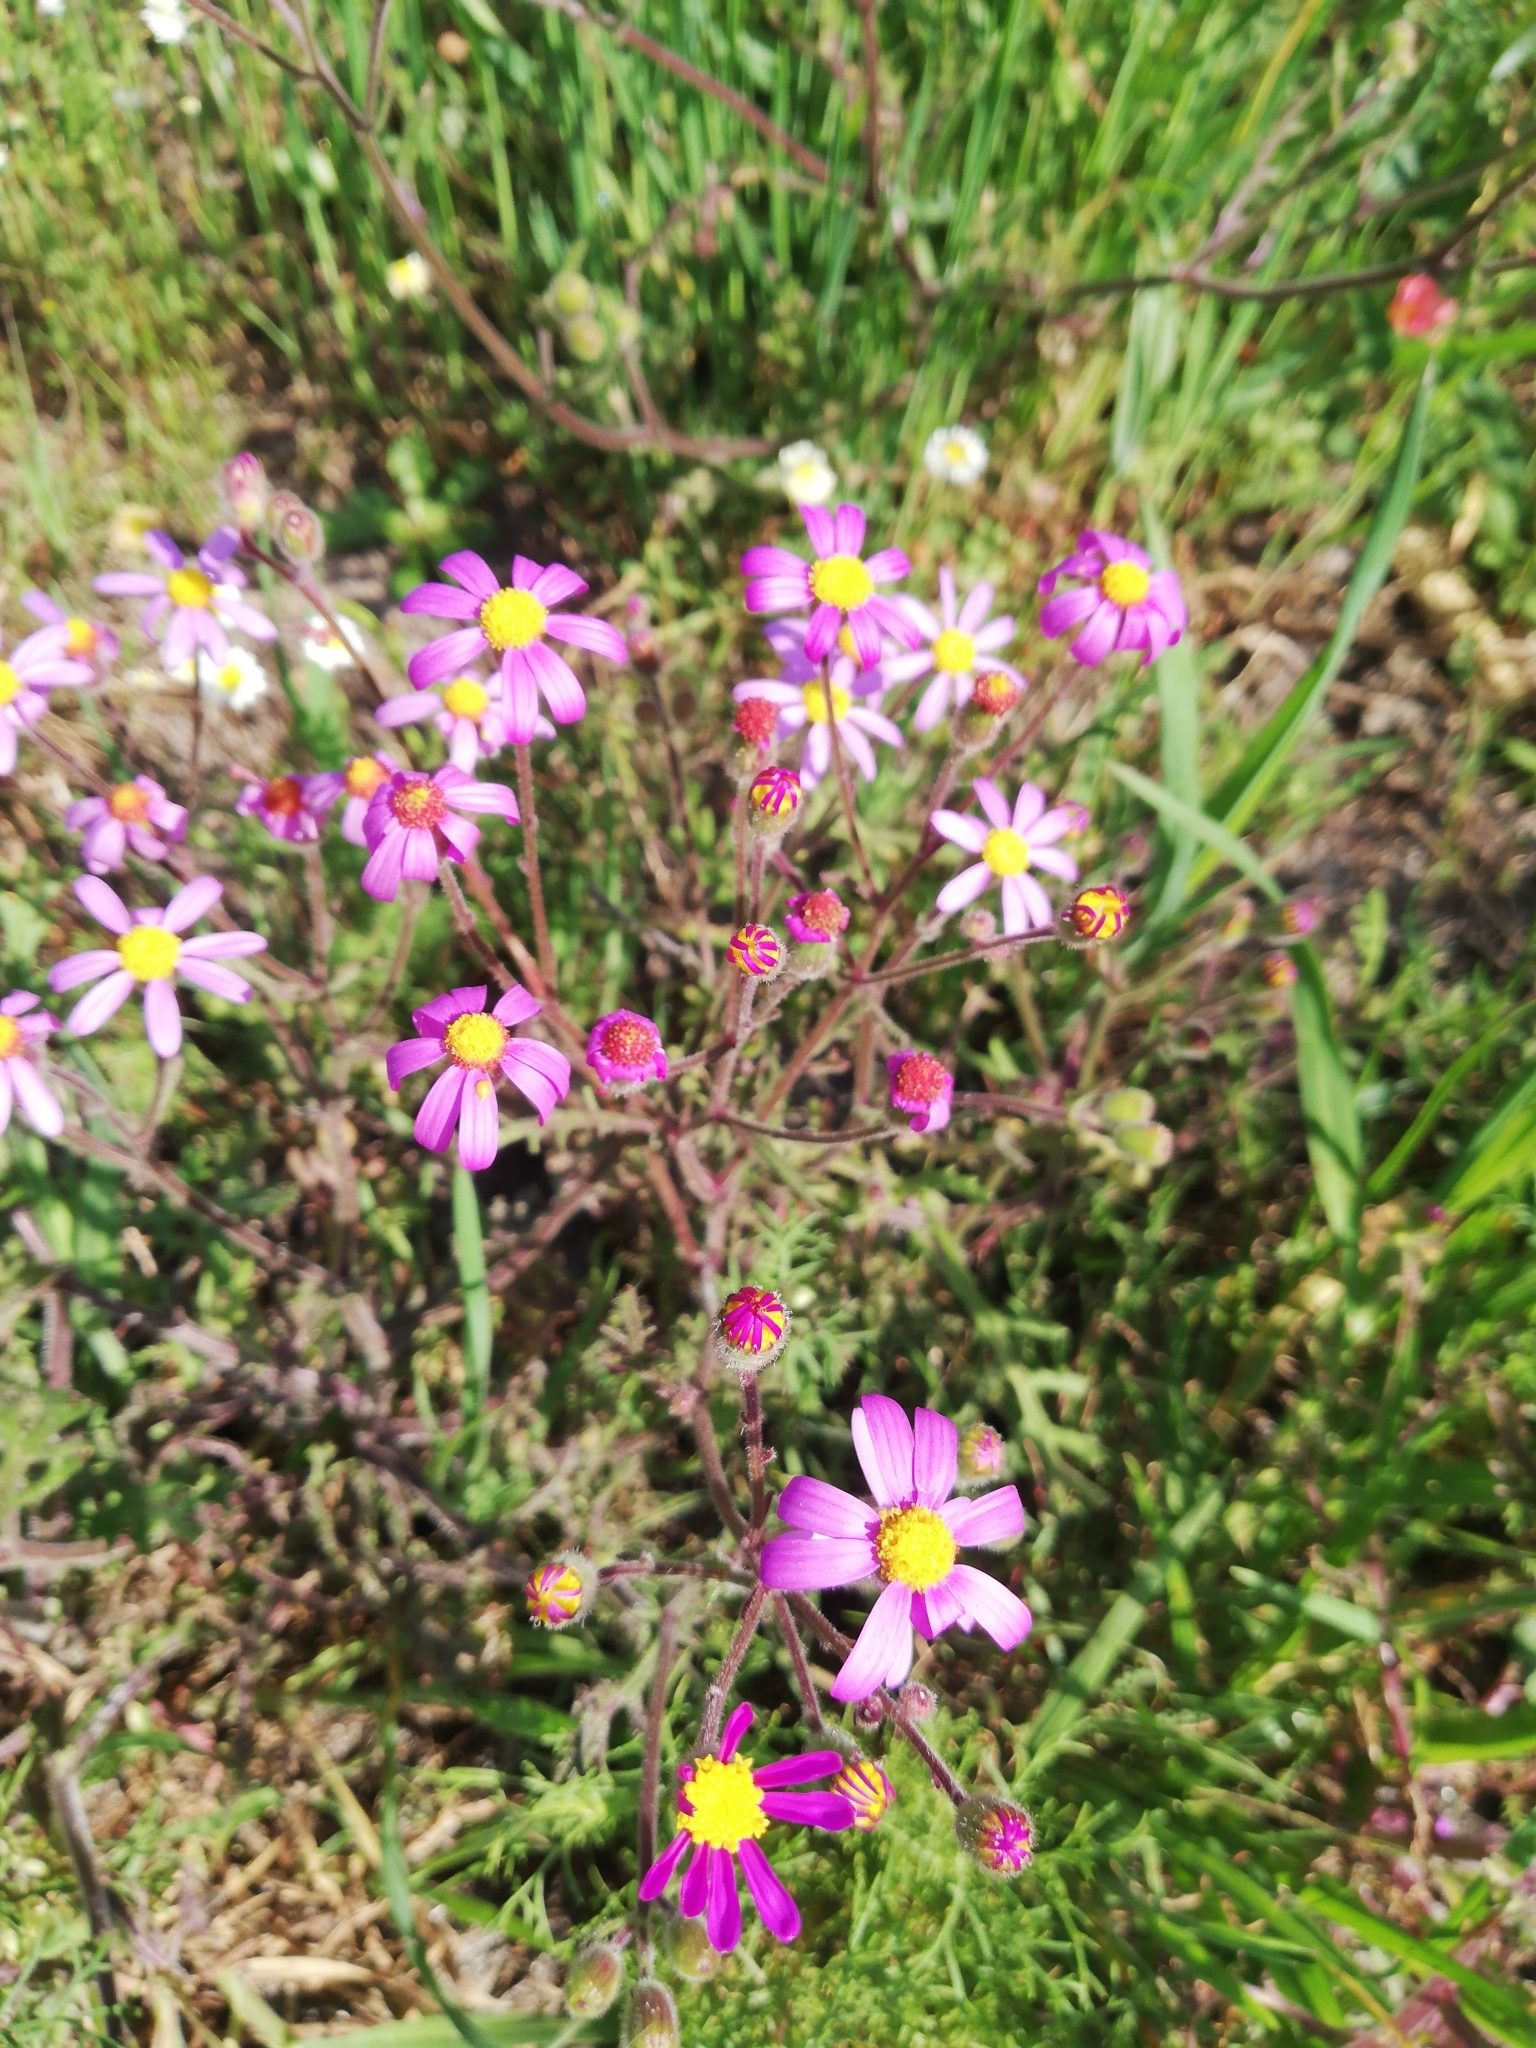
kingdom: Plantae
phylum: Tracheophyta
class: Magnoliopsida
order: Asterales
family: Asteraceae
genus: Senecio
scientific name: Senecio arenarius
